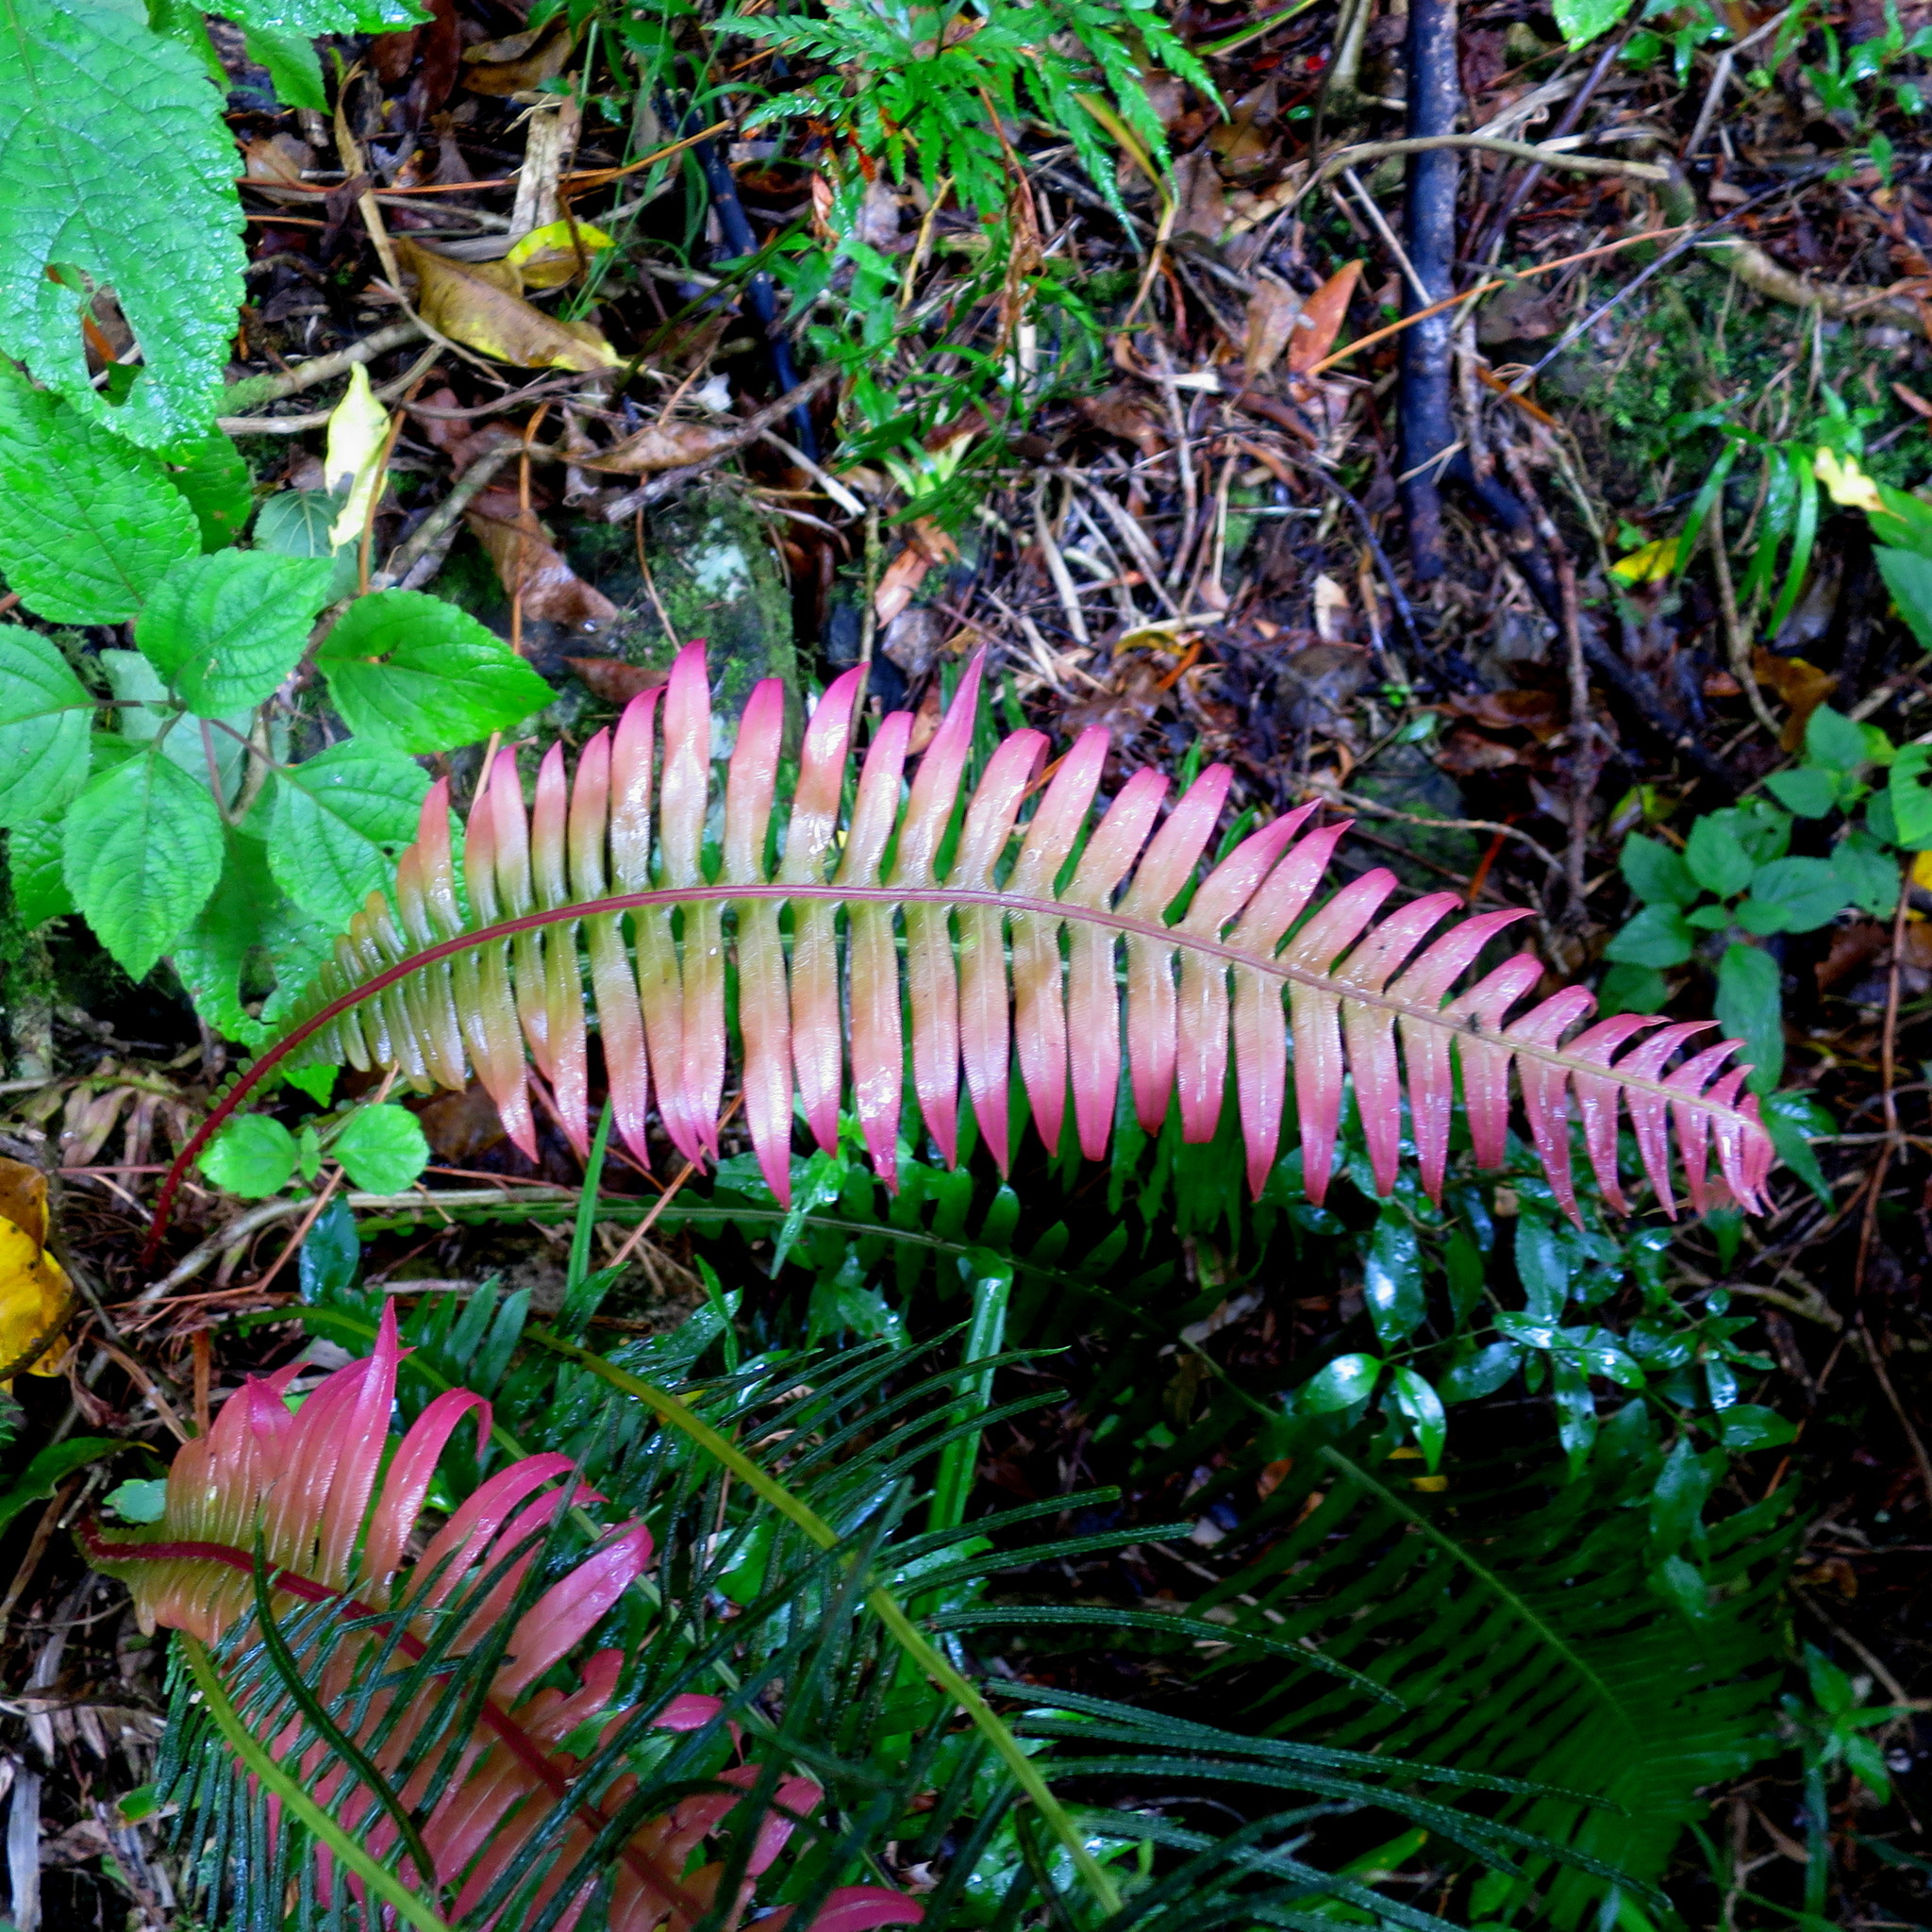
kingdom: Plantae
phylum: Tracheophyta
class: Polypodiopsida
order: Polypodiales
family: Blechnaceae
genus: Lomaridium
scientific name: Lomaridium attenuatum
